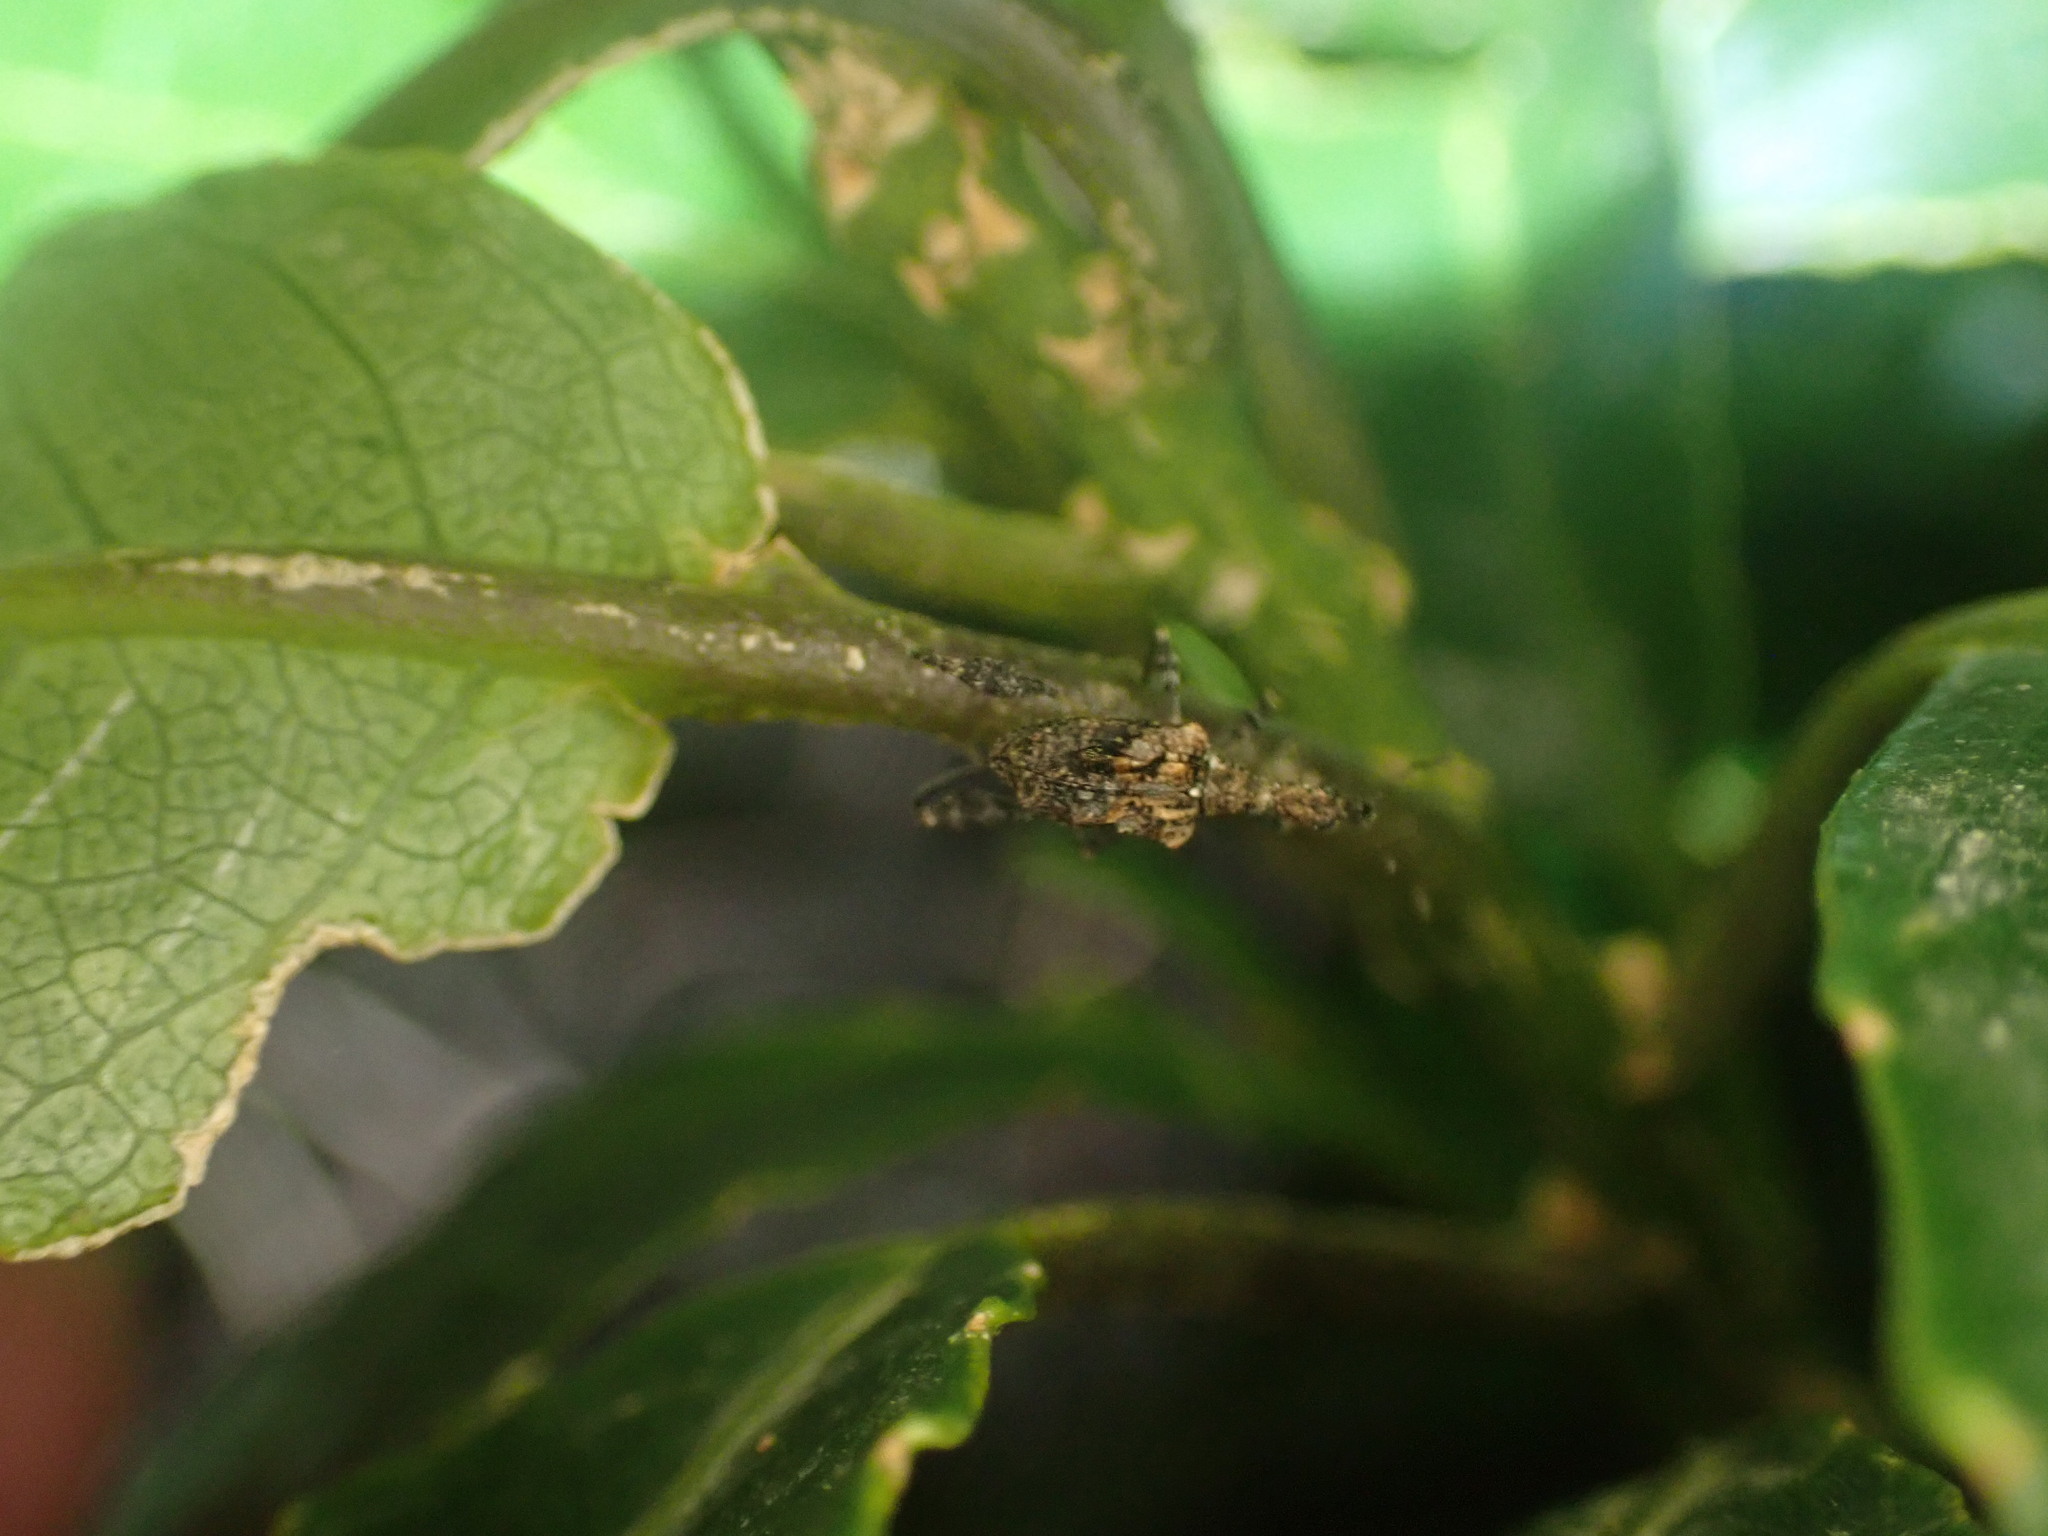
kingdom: Animalia
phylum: Arthropoda
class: Insecta
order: Coleoptera
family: Curculionidae
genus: Stephanorhynchus
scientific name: Stephanorhynchus lawsoni
